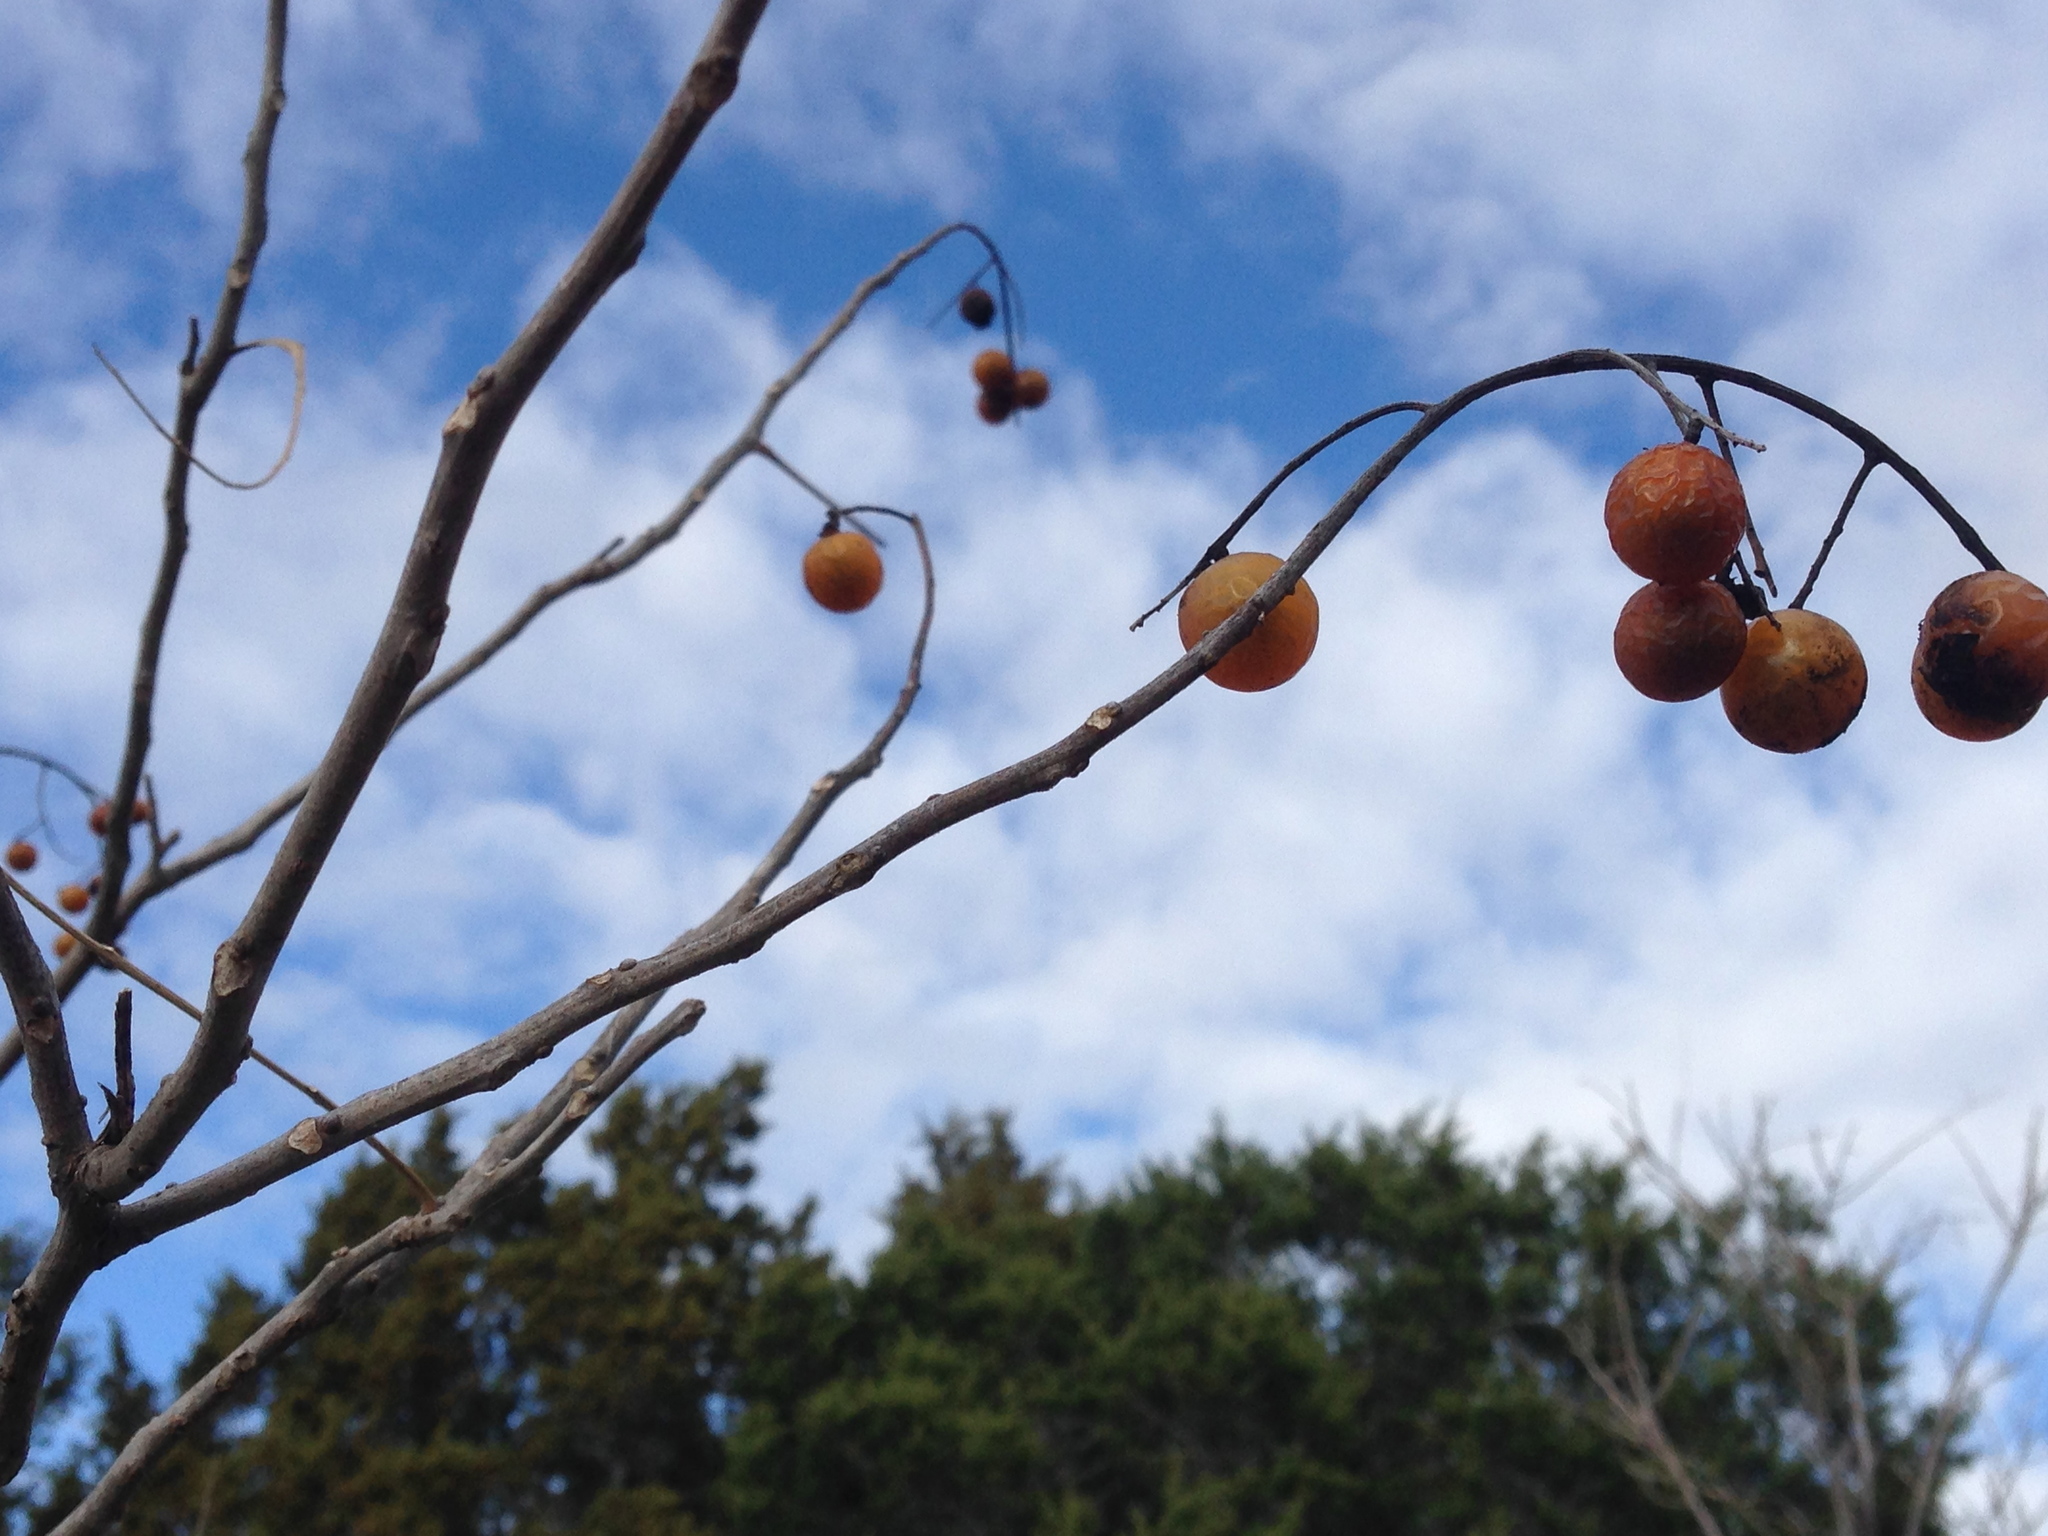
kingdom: Plantae
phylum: Tracheophyta
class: Magnoliopsida
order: Sapindales
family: Sapindaceae
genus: Sapindus
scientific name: Sapindus drummondii
